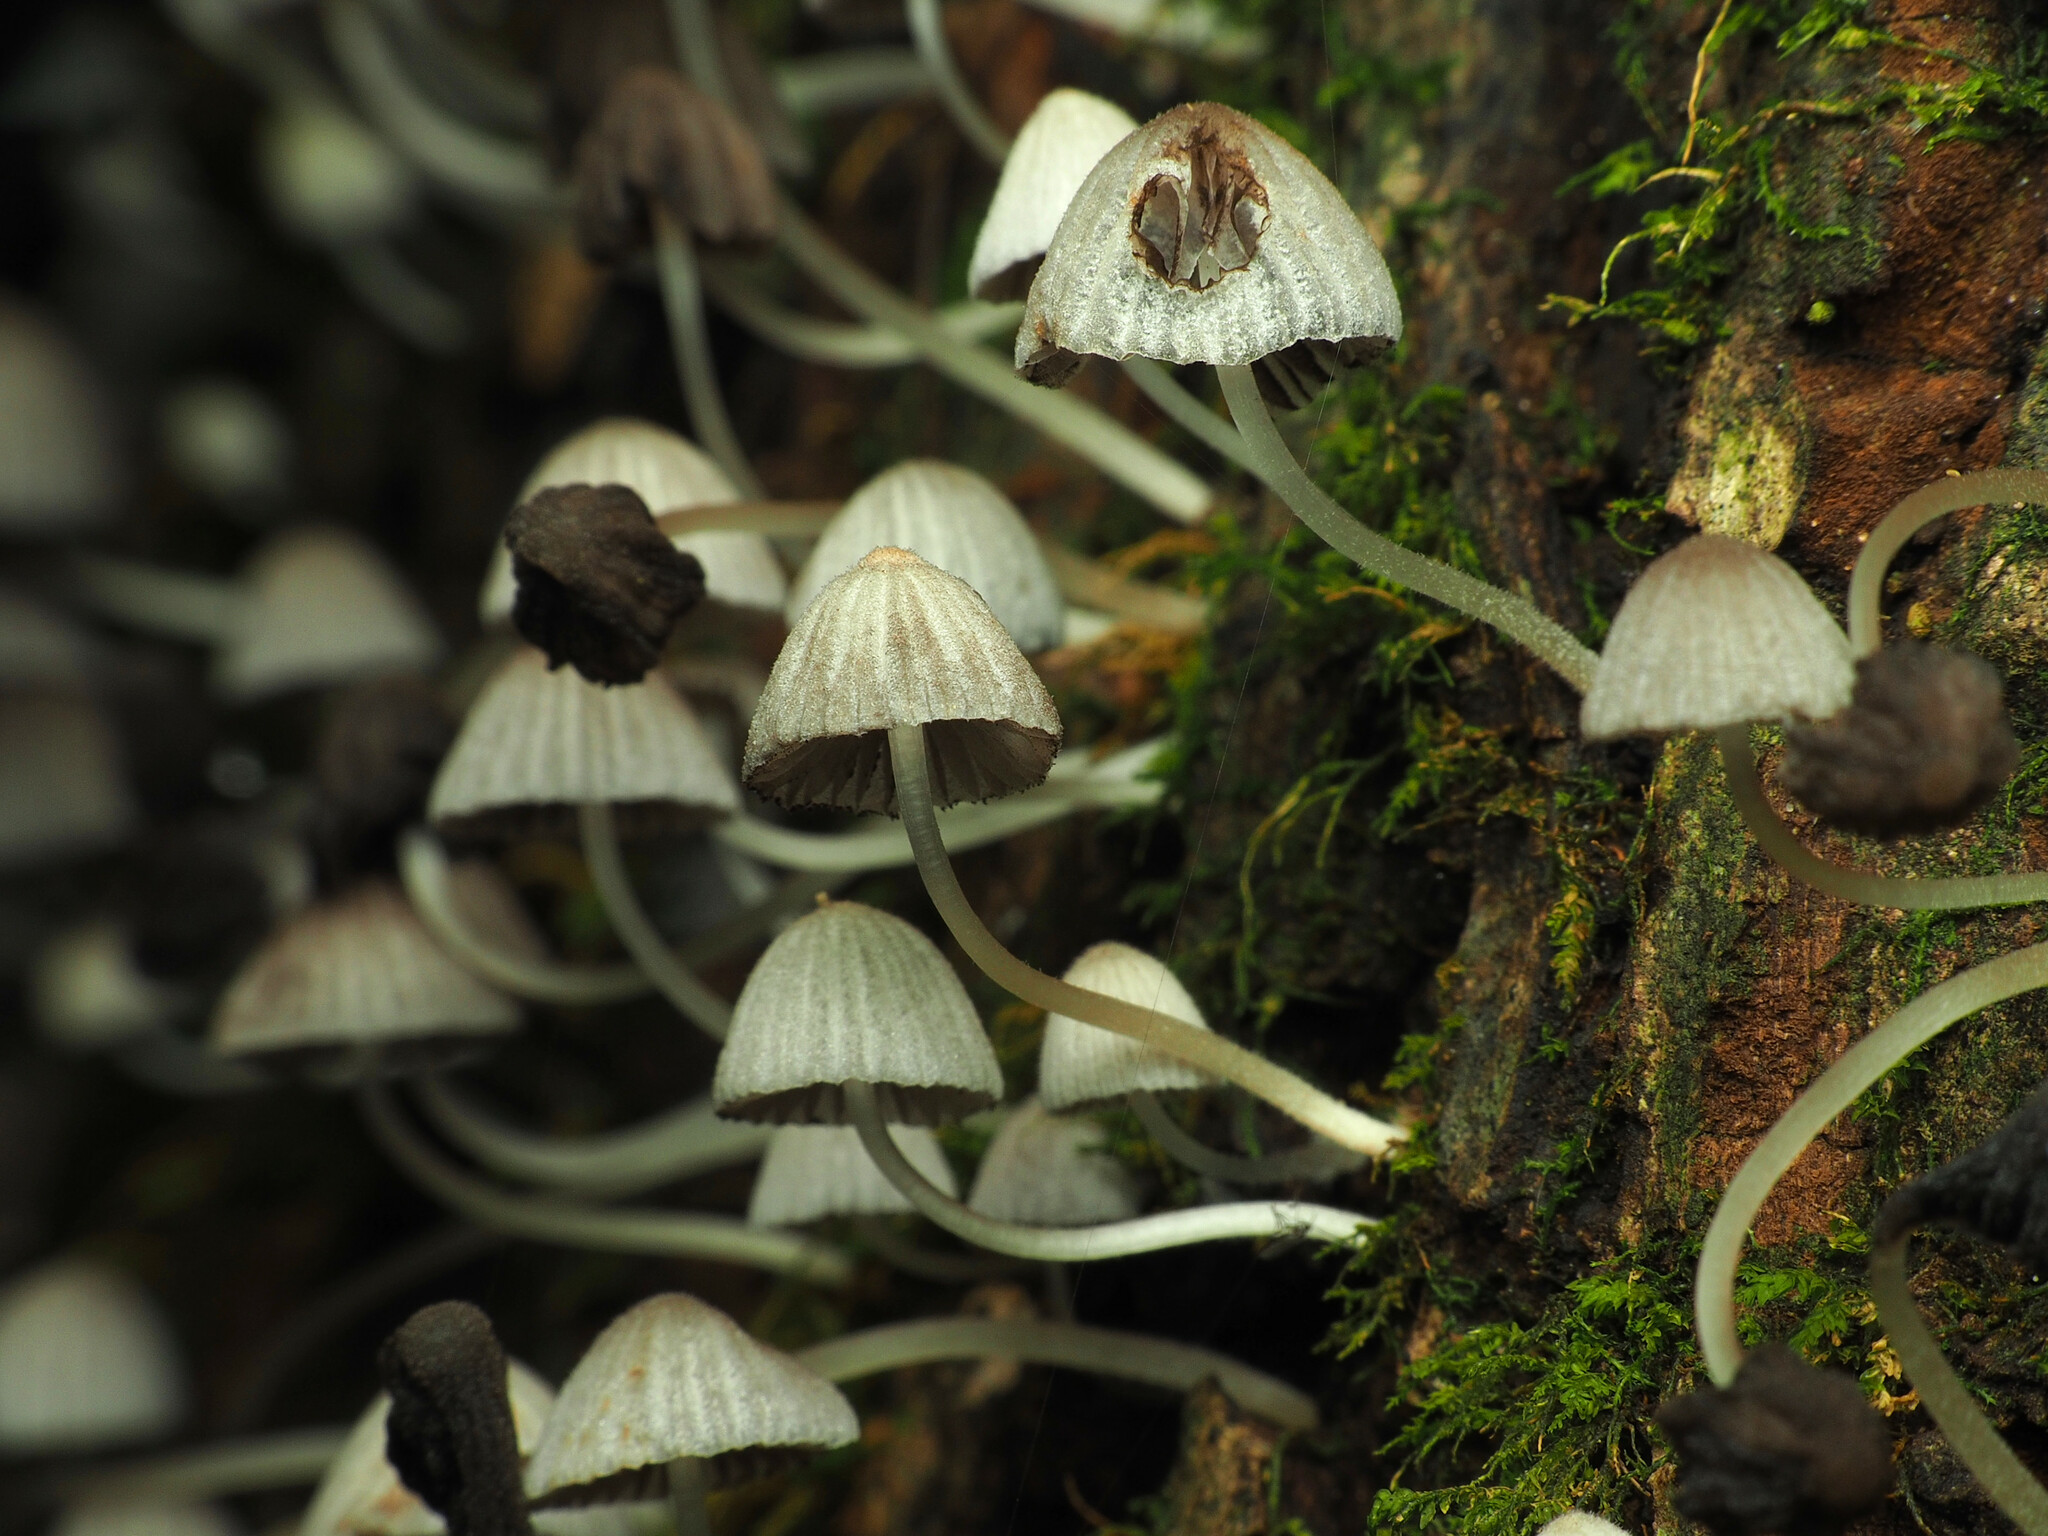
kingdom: Fungi
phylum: Basidiomycota
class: Agaricomycetes
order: Agaricales
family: Psathyrellaceae
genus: Coprinellus
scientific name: Coprinellus disseminatus
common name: Fairies' bonnets
